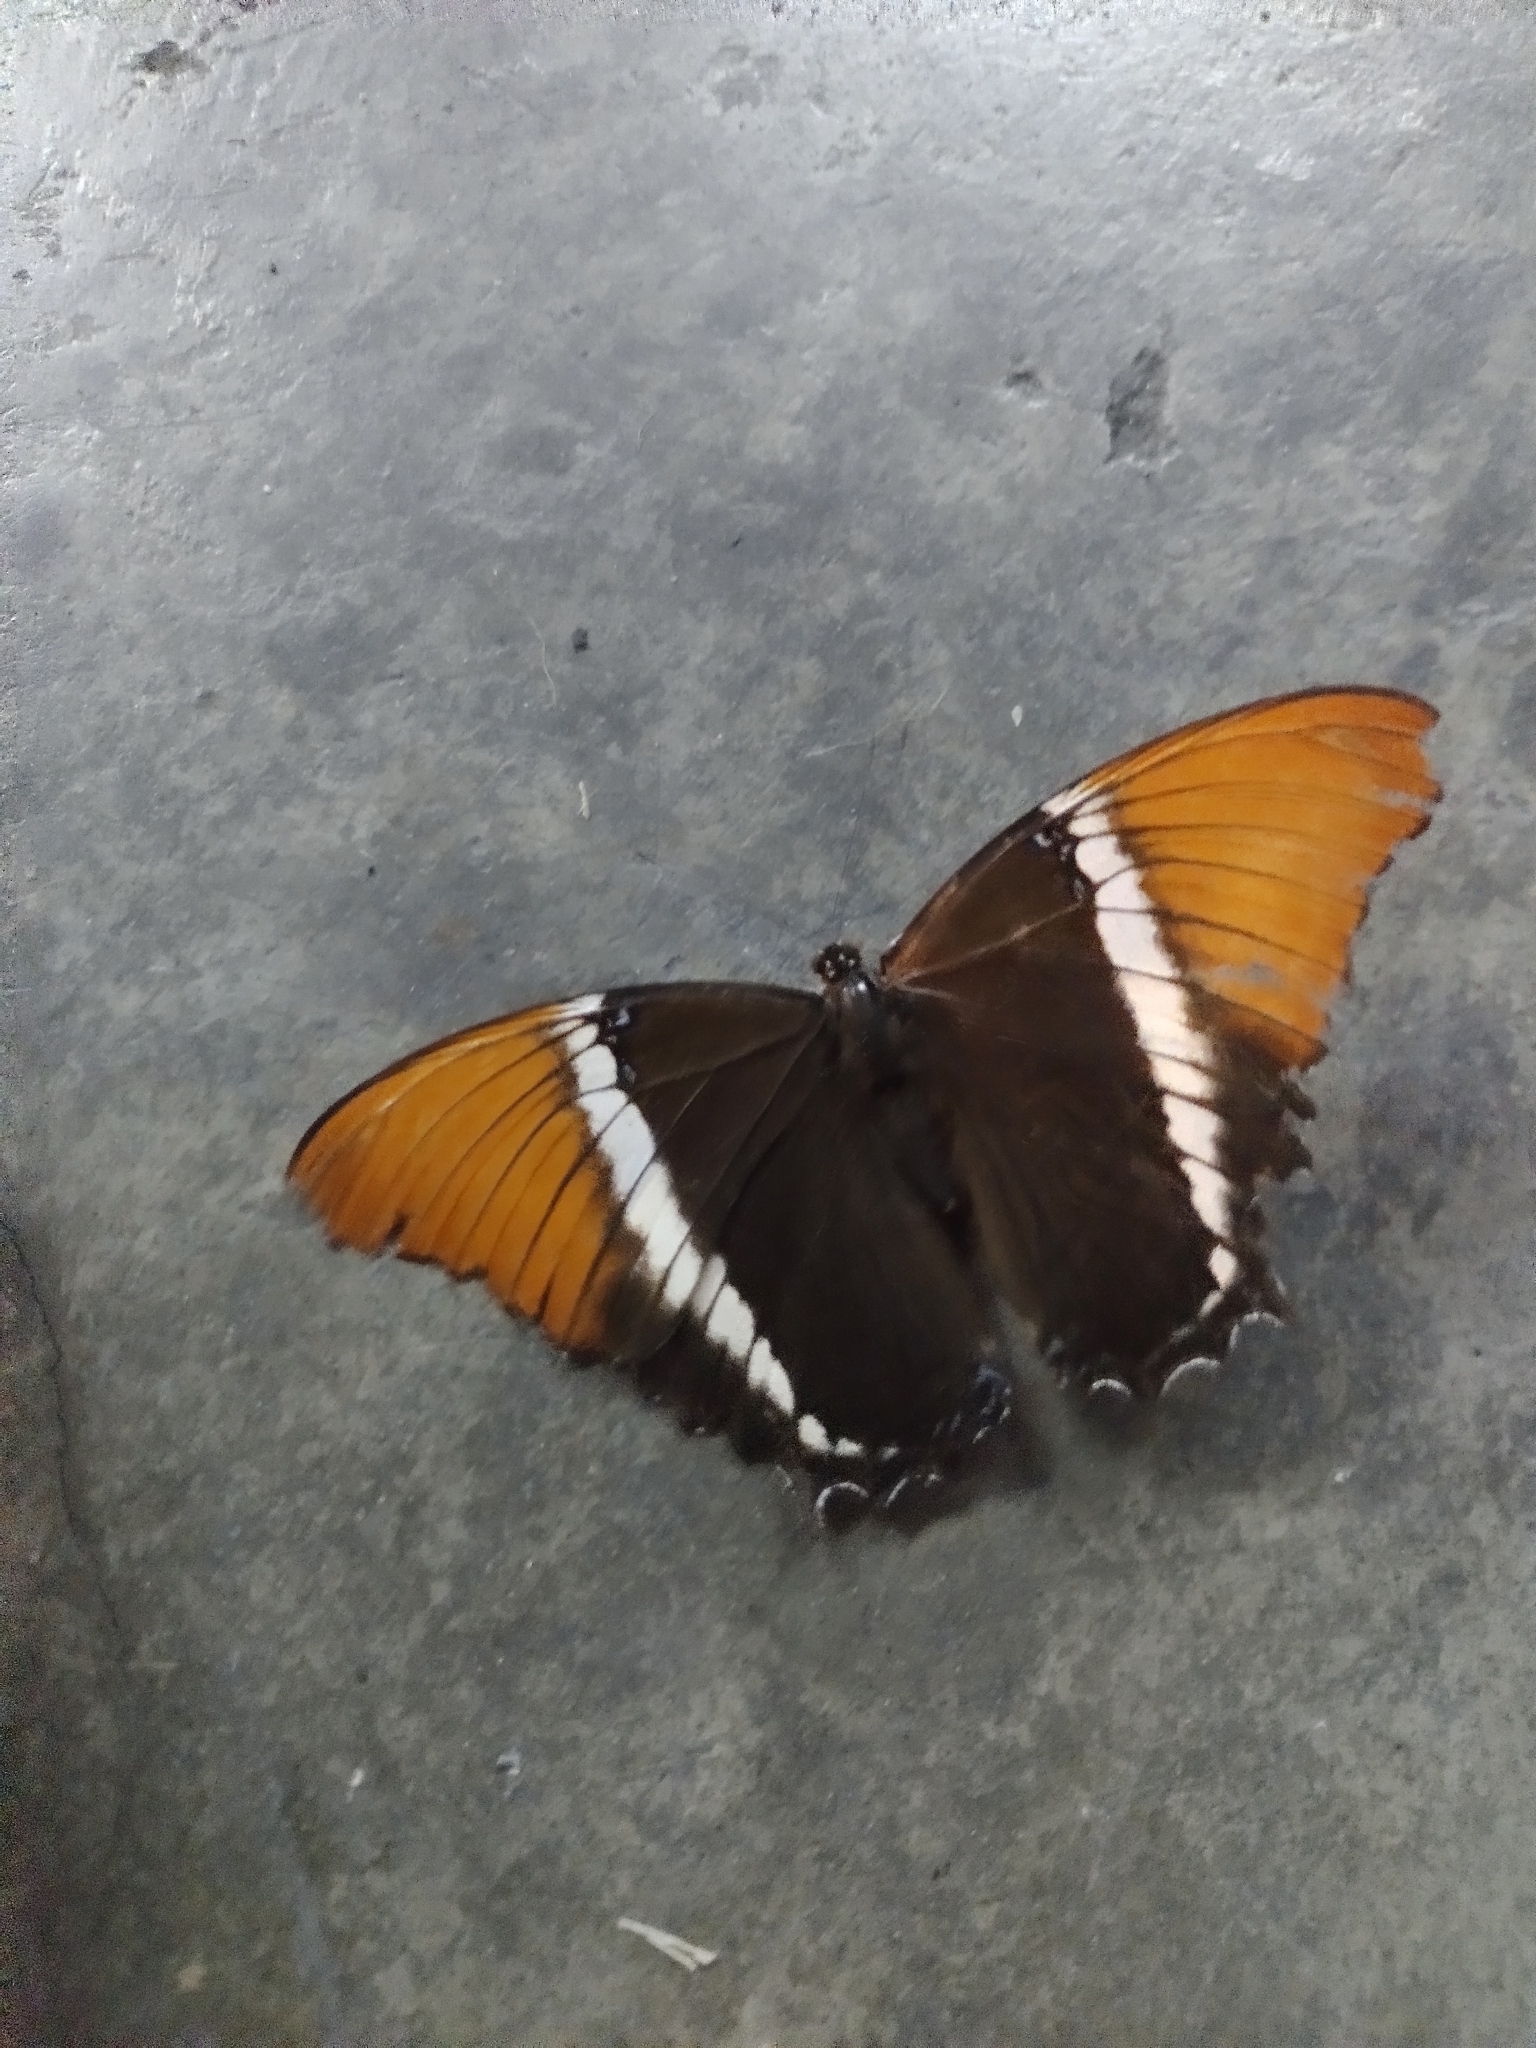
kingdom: Animalia
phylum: Arthropoda
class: Insecta
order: Lepidoptera
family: Nymphalidae
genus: Siproeta
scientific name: Siproeta epaphus
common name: Rusty-tipped page
